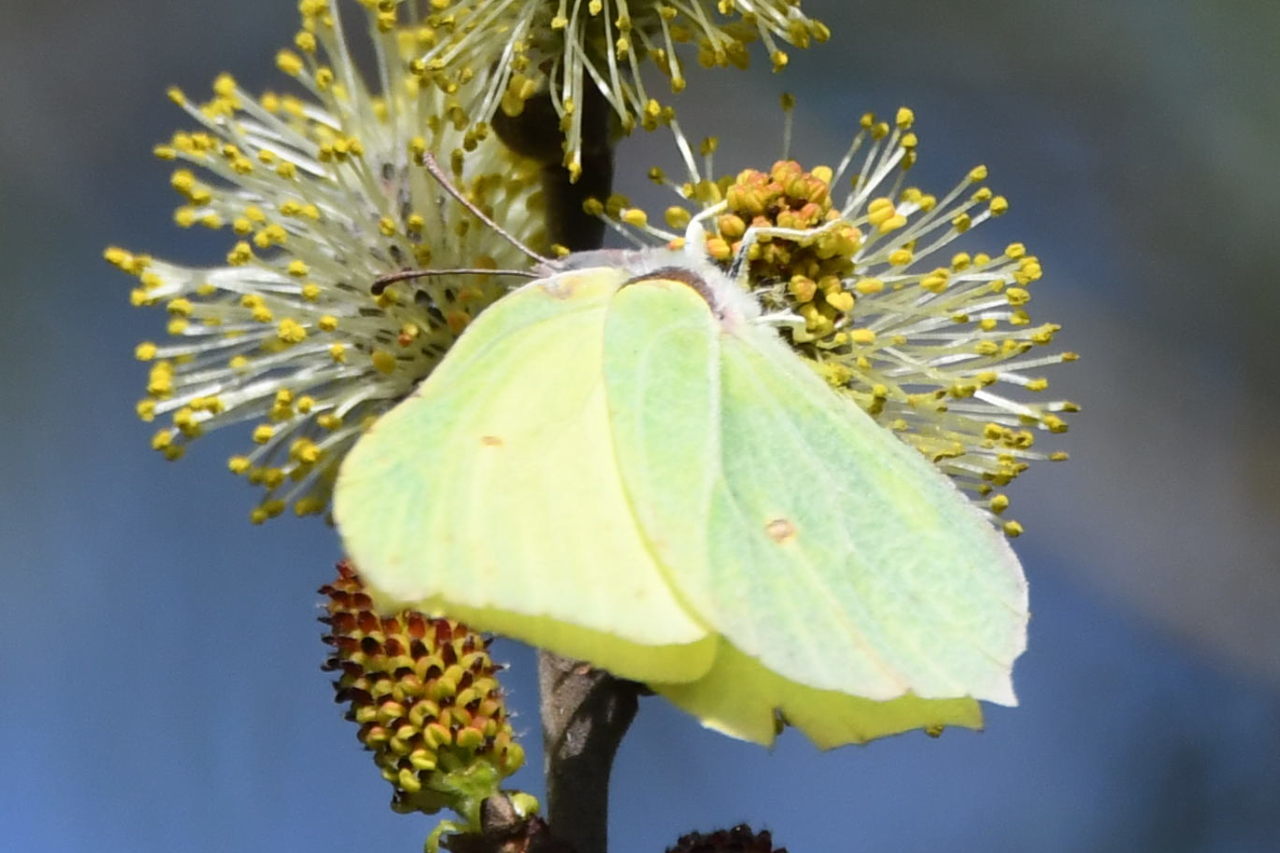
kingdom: Animalia
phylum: Arthropoda
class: Insecta
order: Lepidoptera
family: Pieridae
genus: Gonepteryx
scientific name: Gonepteryx rhamni
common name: Brimstone
